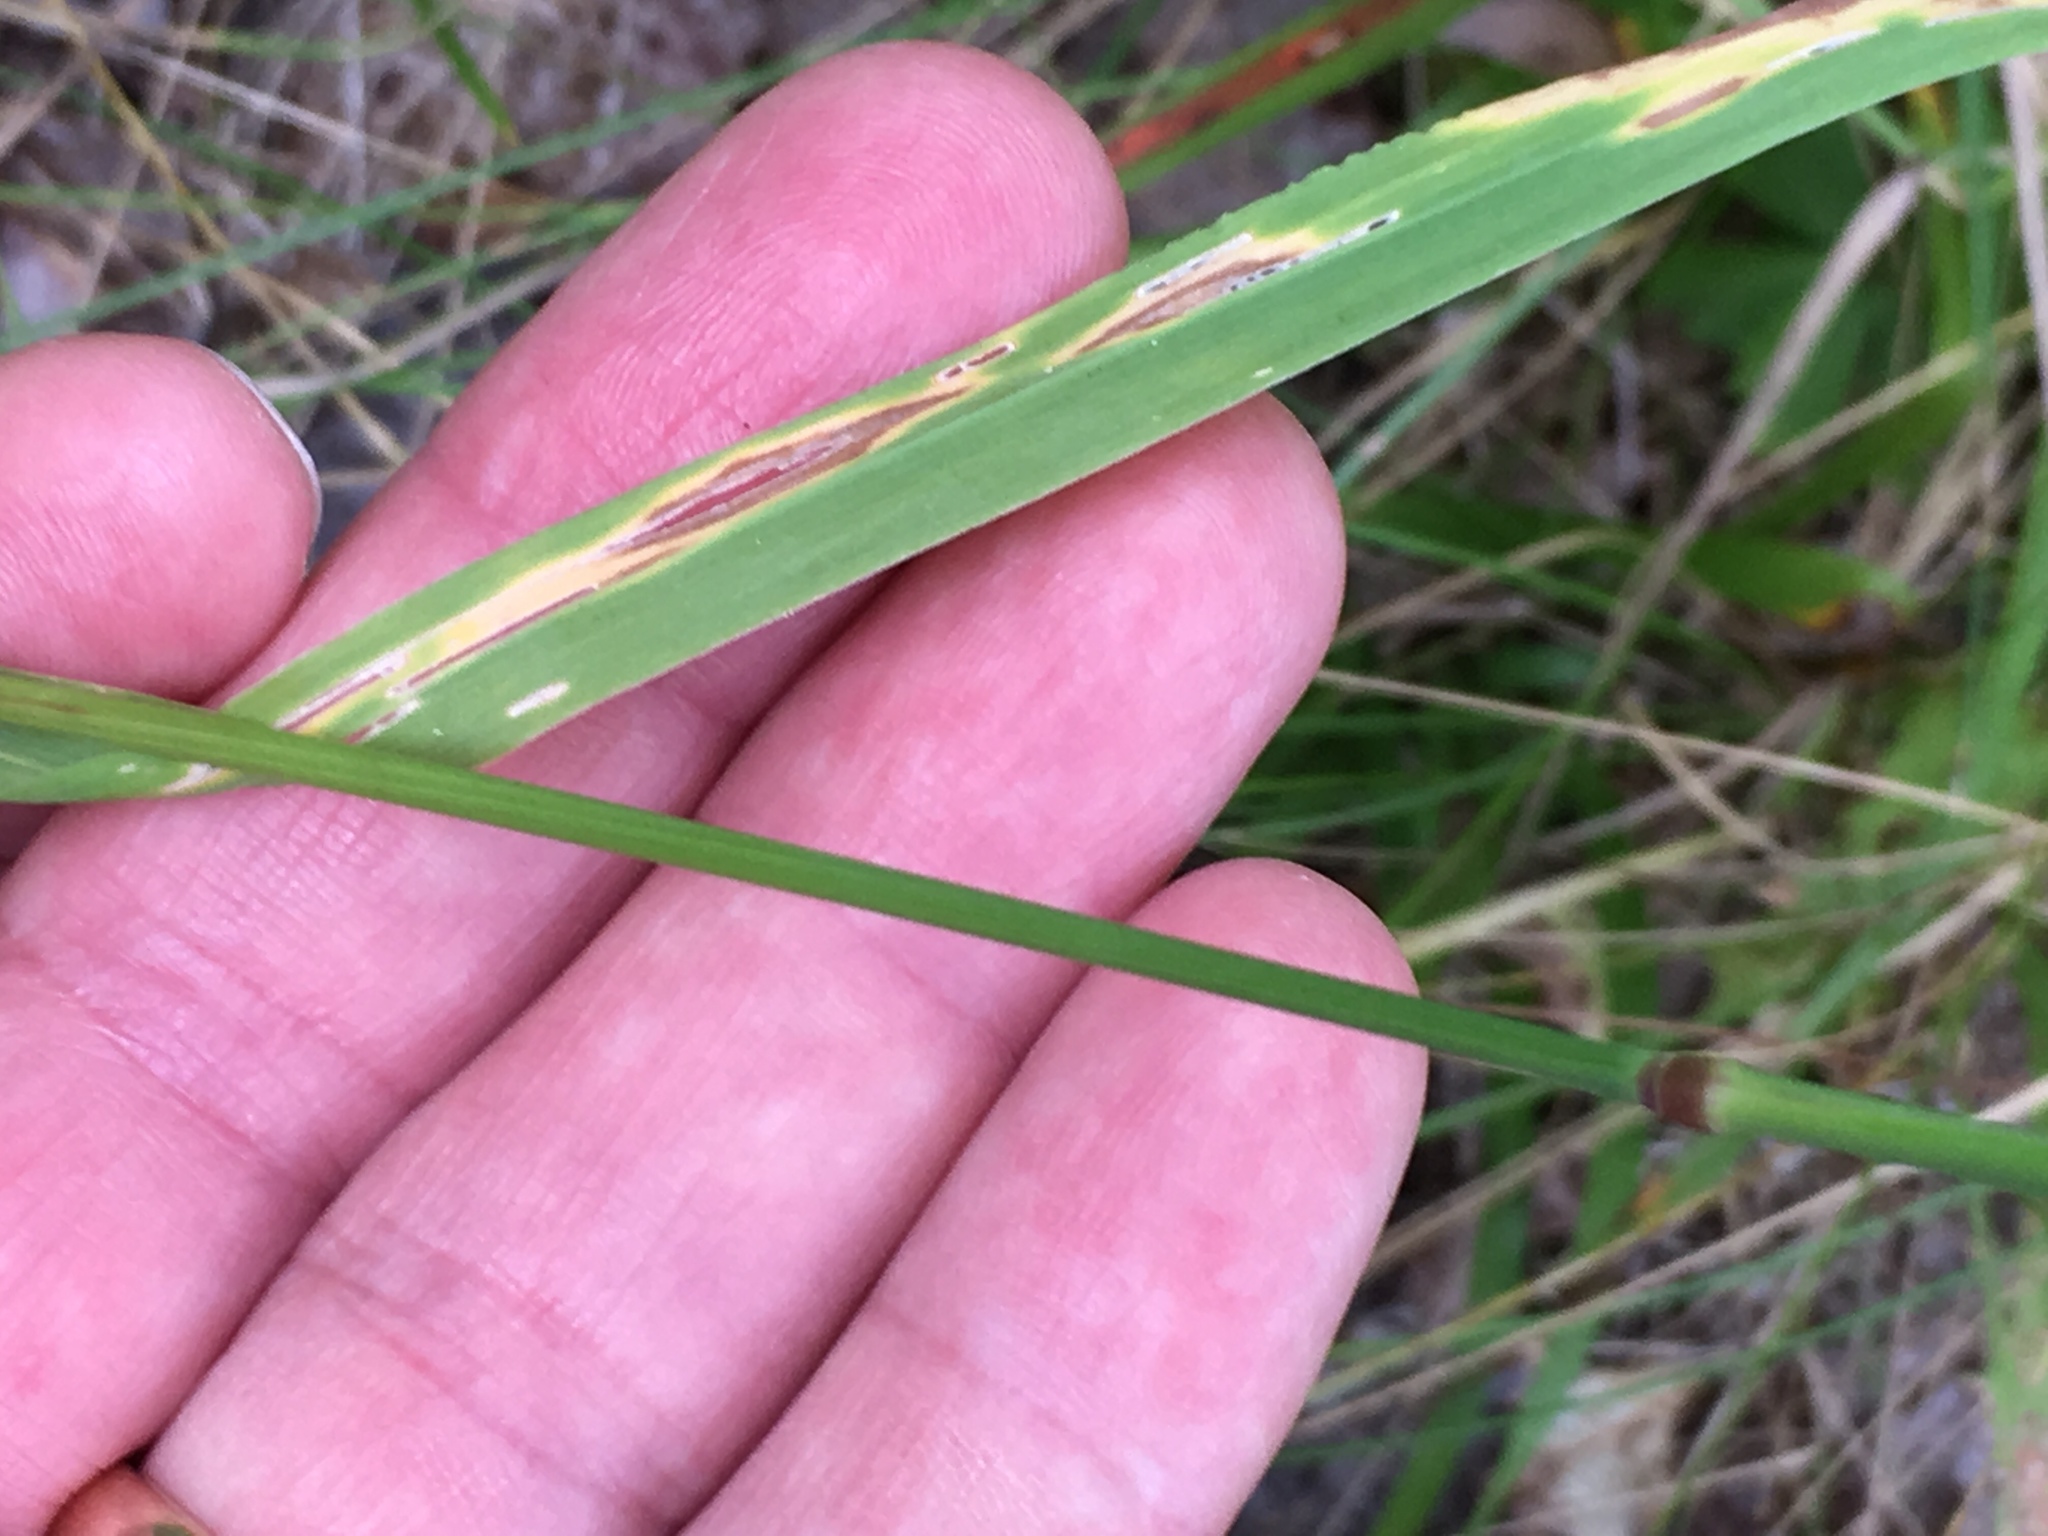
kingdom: Plantae
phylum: Tracheophyta
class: Liliopsida
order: Poales
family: Poaceae
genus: Phleum
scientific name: Phleum pratense
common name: Timothy grass
